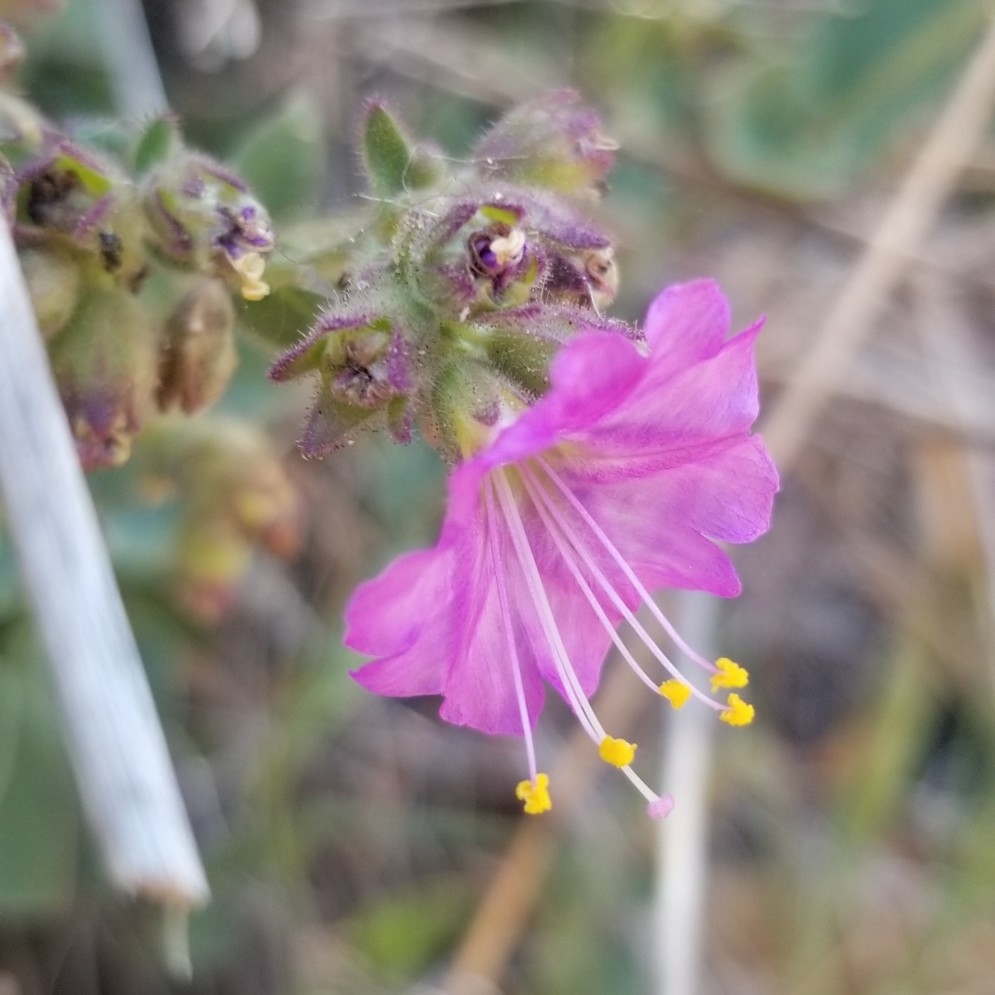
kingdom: Plantae
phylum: Tracheophyta
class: Magnoliopsida
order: Caryophyllales
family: Nyctaginaceae
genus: Mirabilis
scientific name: Mirabilis laevis
